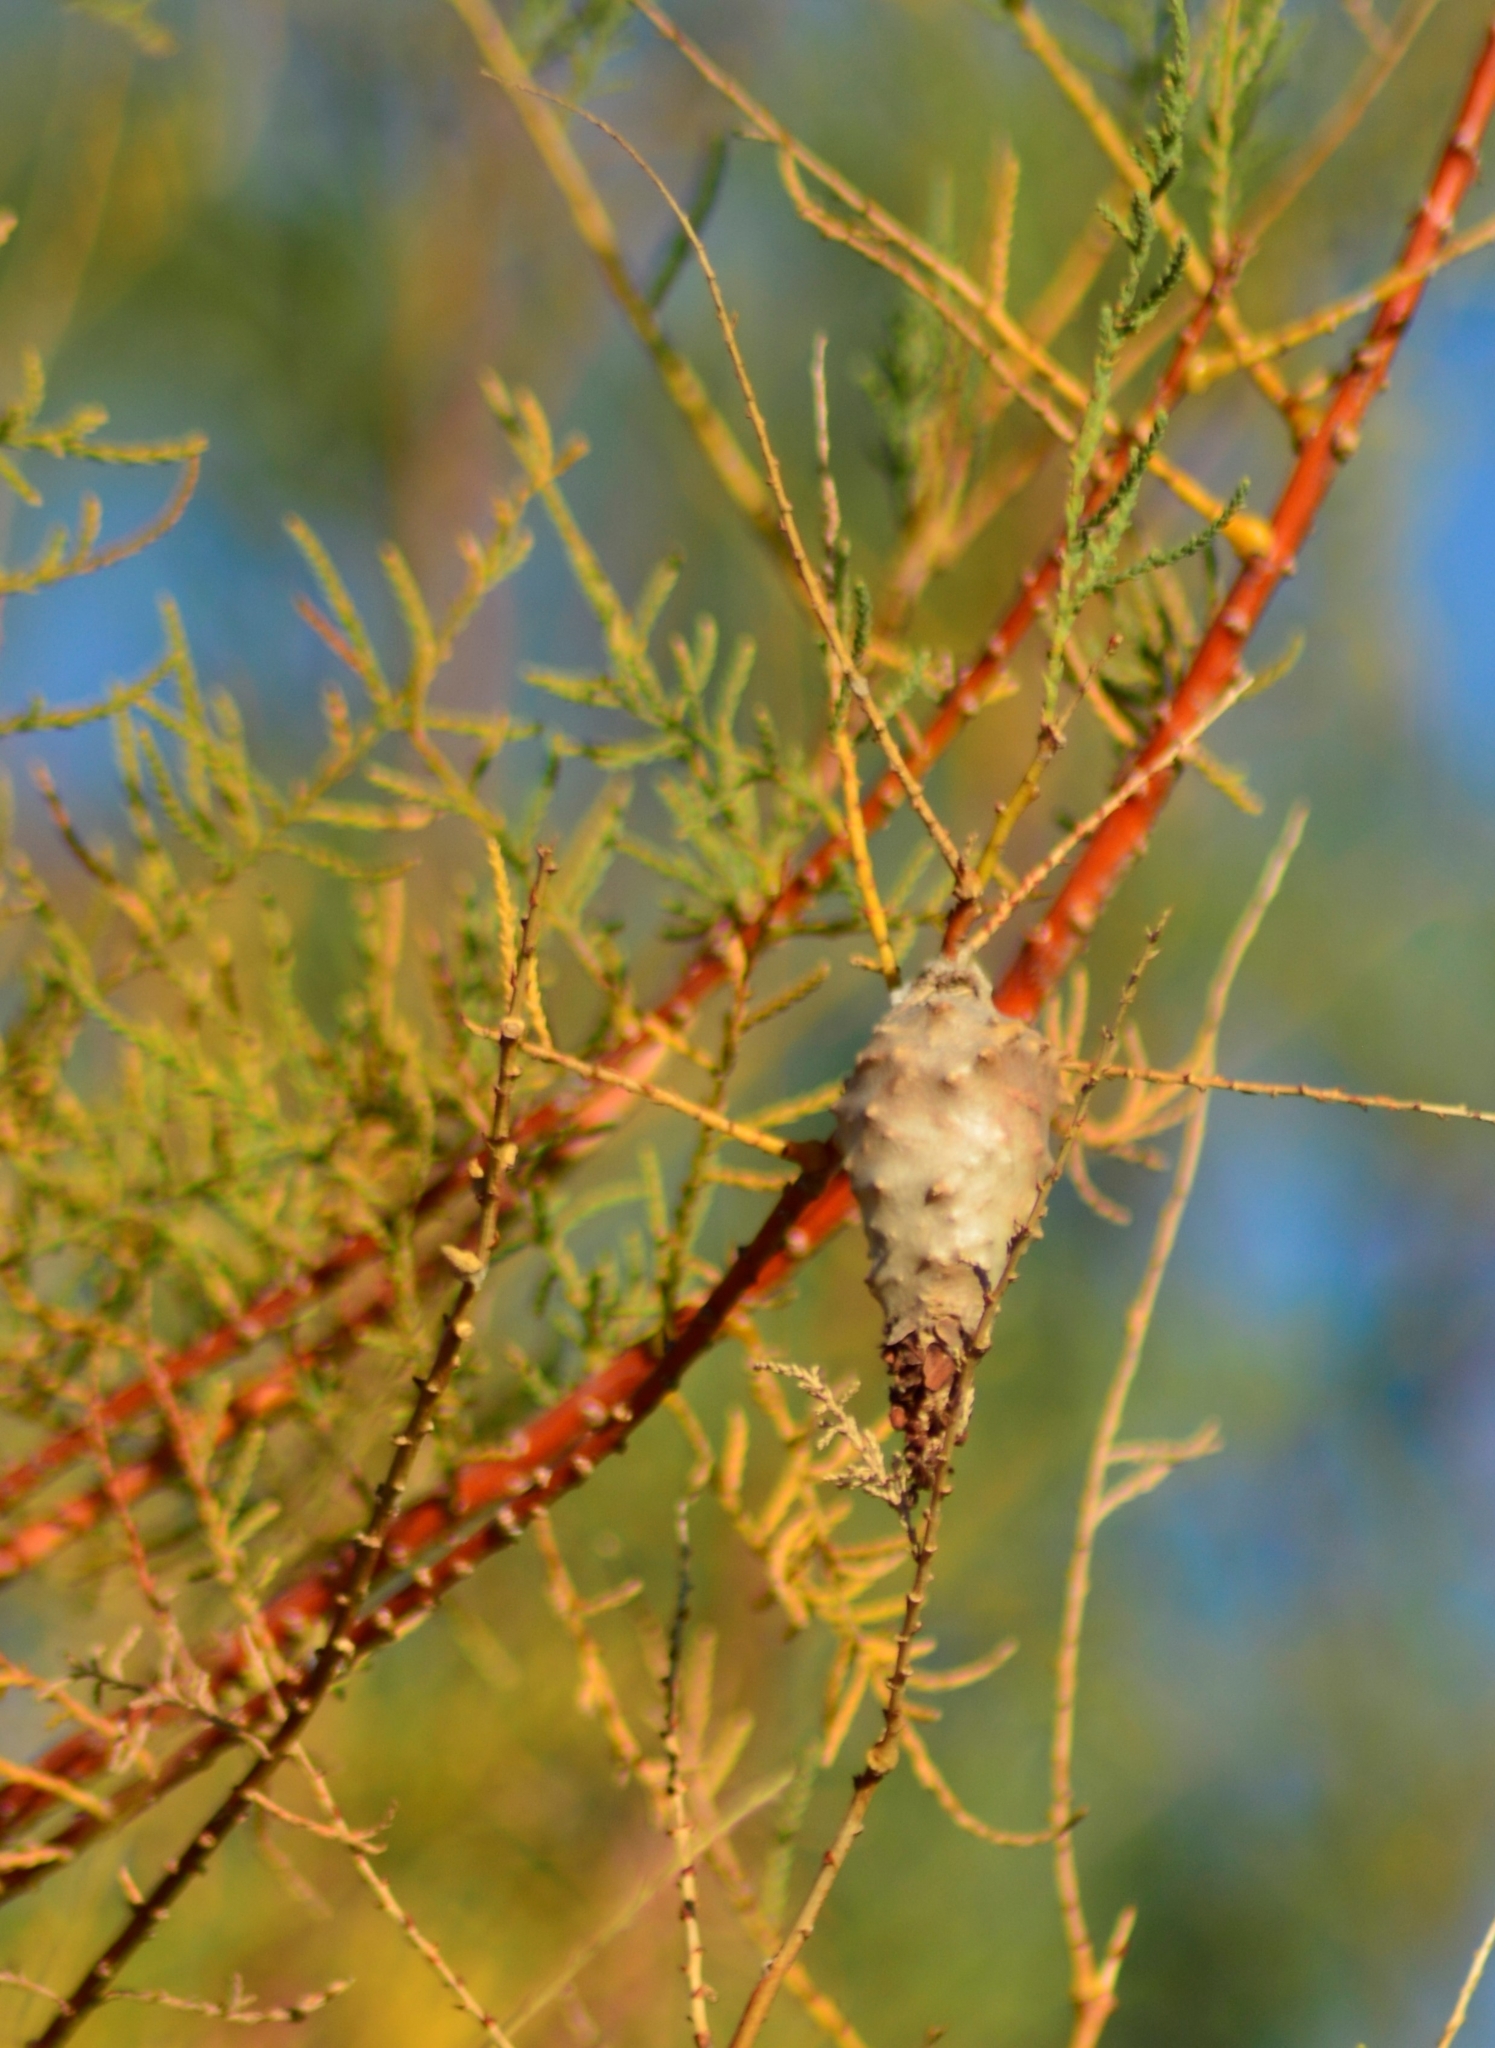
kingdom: Animalia
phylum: Arthropoda
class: Insecta
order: Lepidoptera
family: Psychidae
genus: Oiketicus
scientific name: Oiketicus
